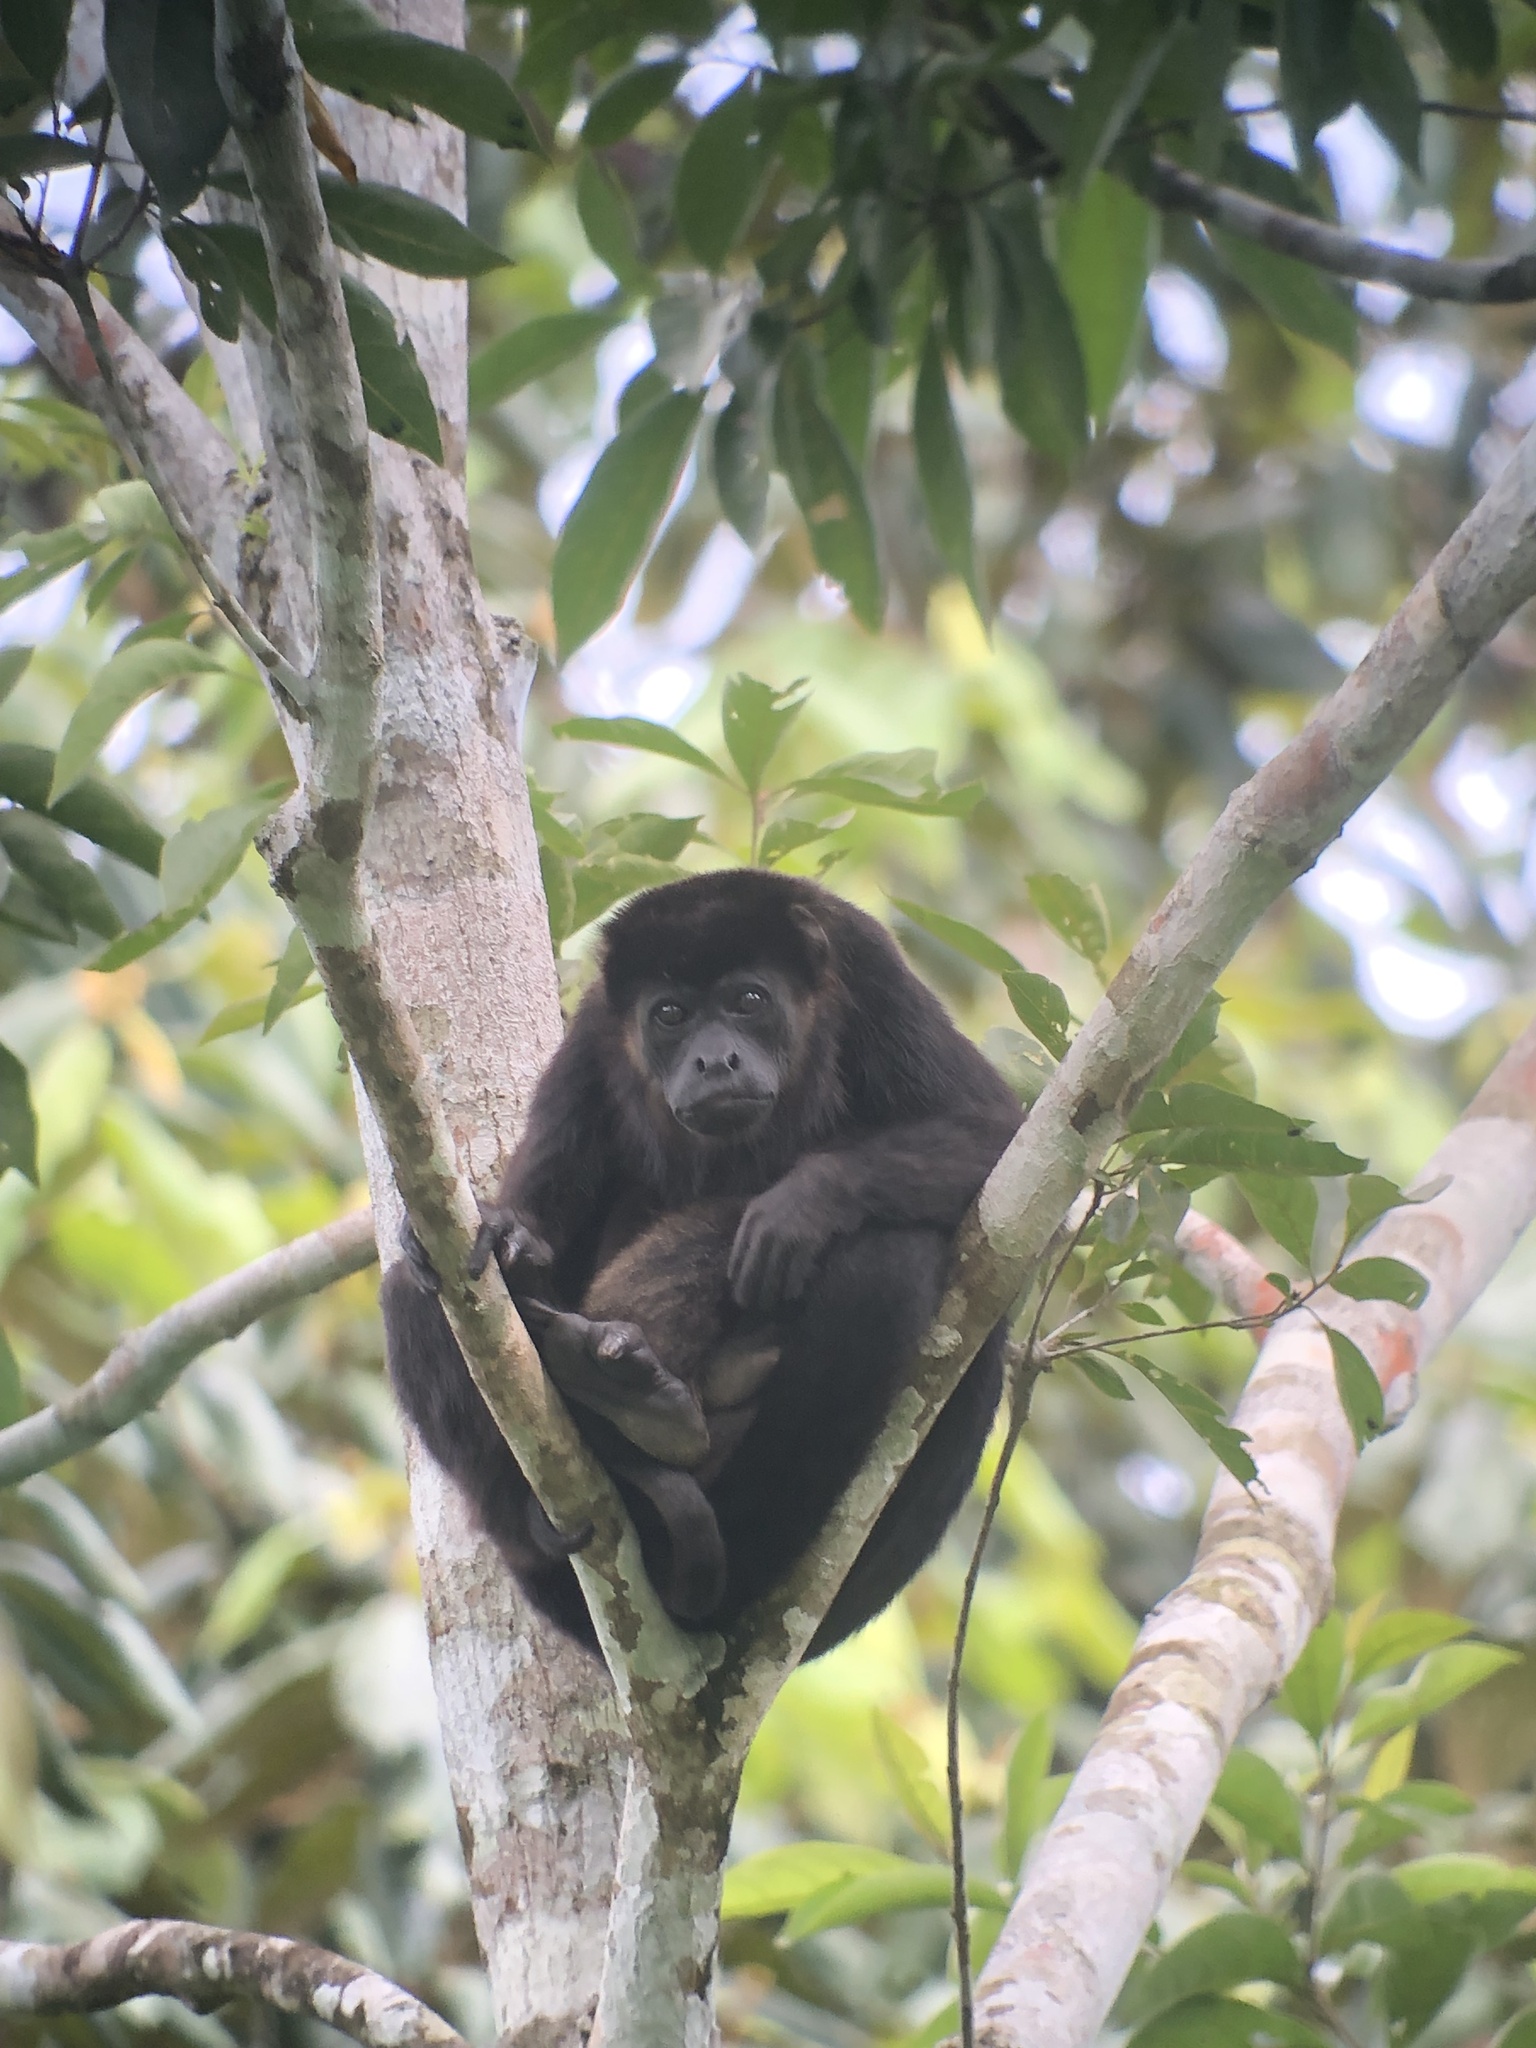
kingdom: Animalia
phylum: Chordata
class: Mammalia
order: Primates
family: Atelidae
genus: Alouatta
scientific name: Alouatta palliata
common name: Mantled howler
